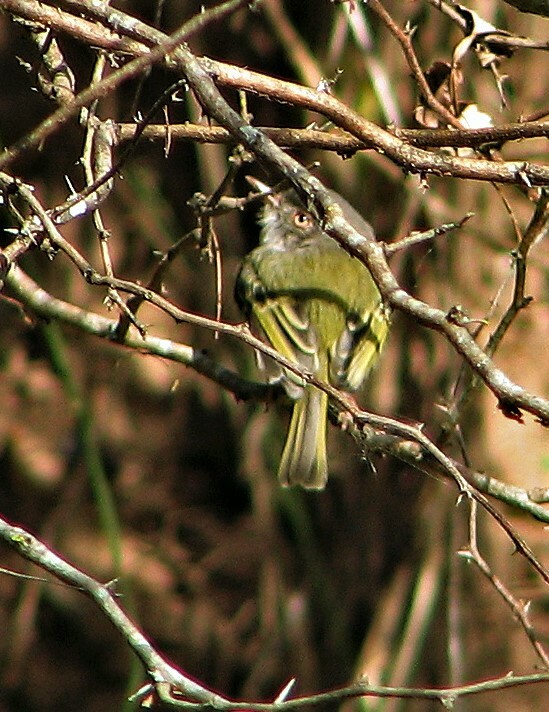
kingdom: Animalia
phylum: Chordata
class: Aves
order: Passeriformes
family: Tyrannidae
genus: Hemitriccus
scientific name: Hemitriccus margaritaceiventer
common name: Pearly-vented tody-tyrant
